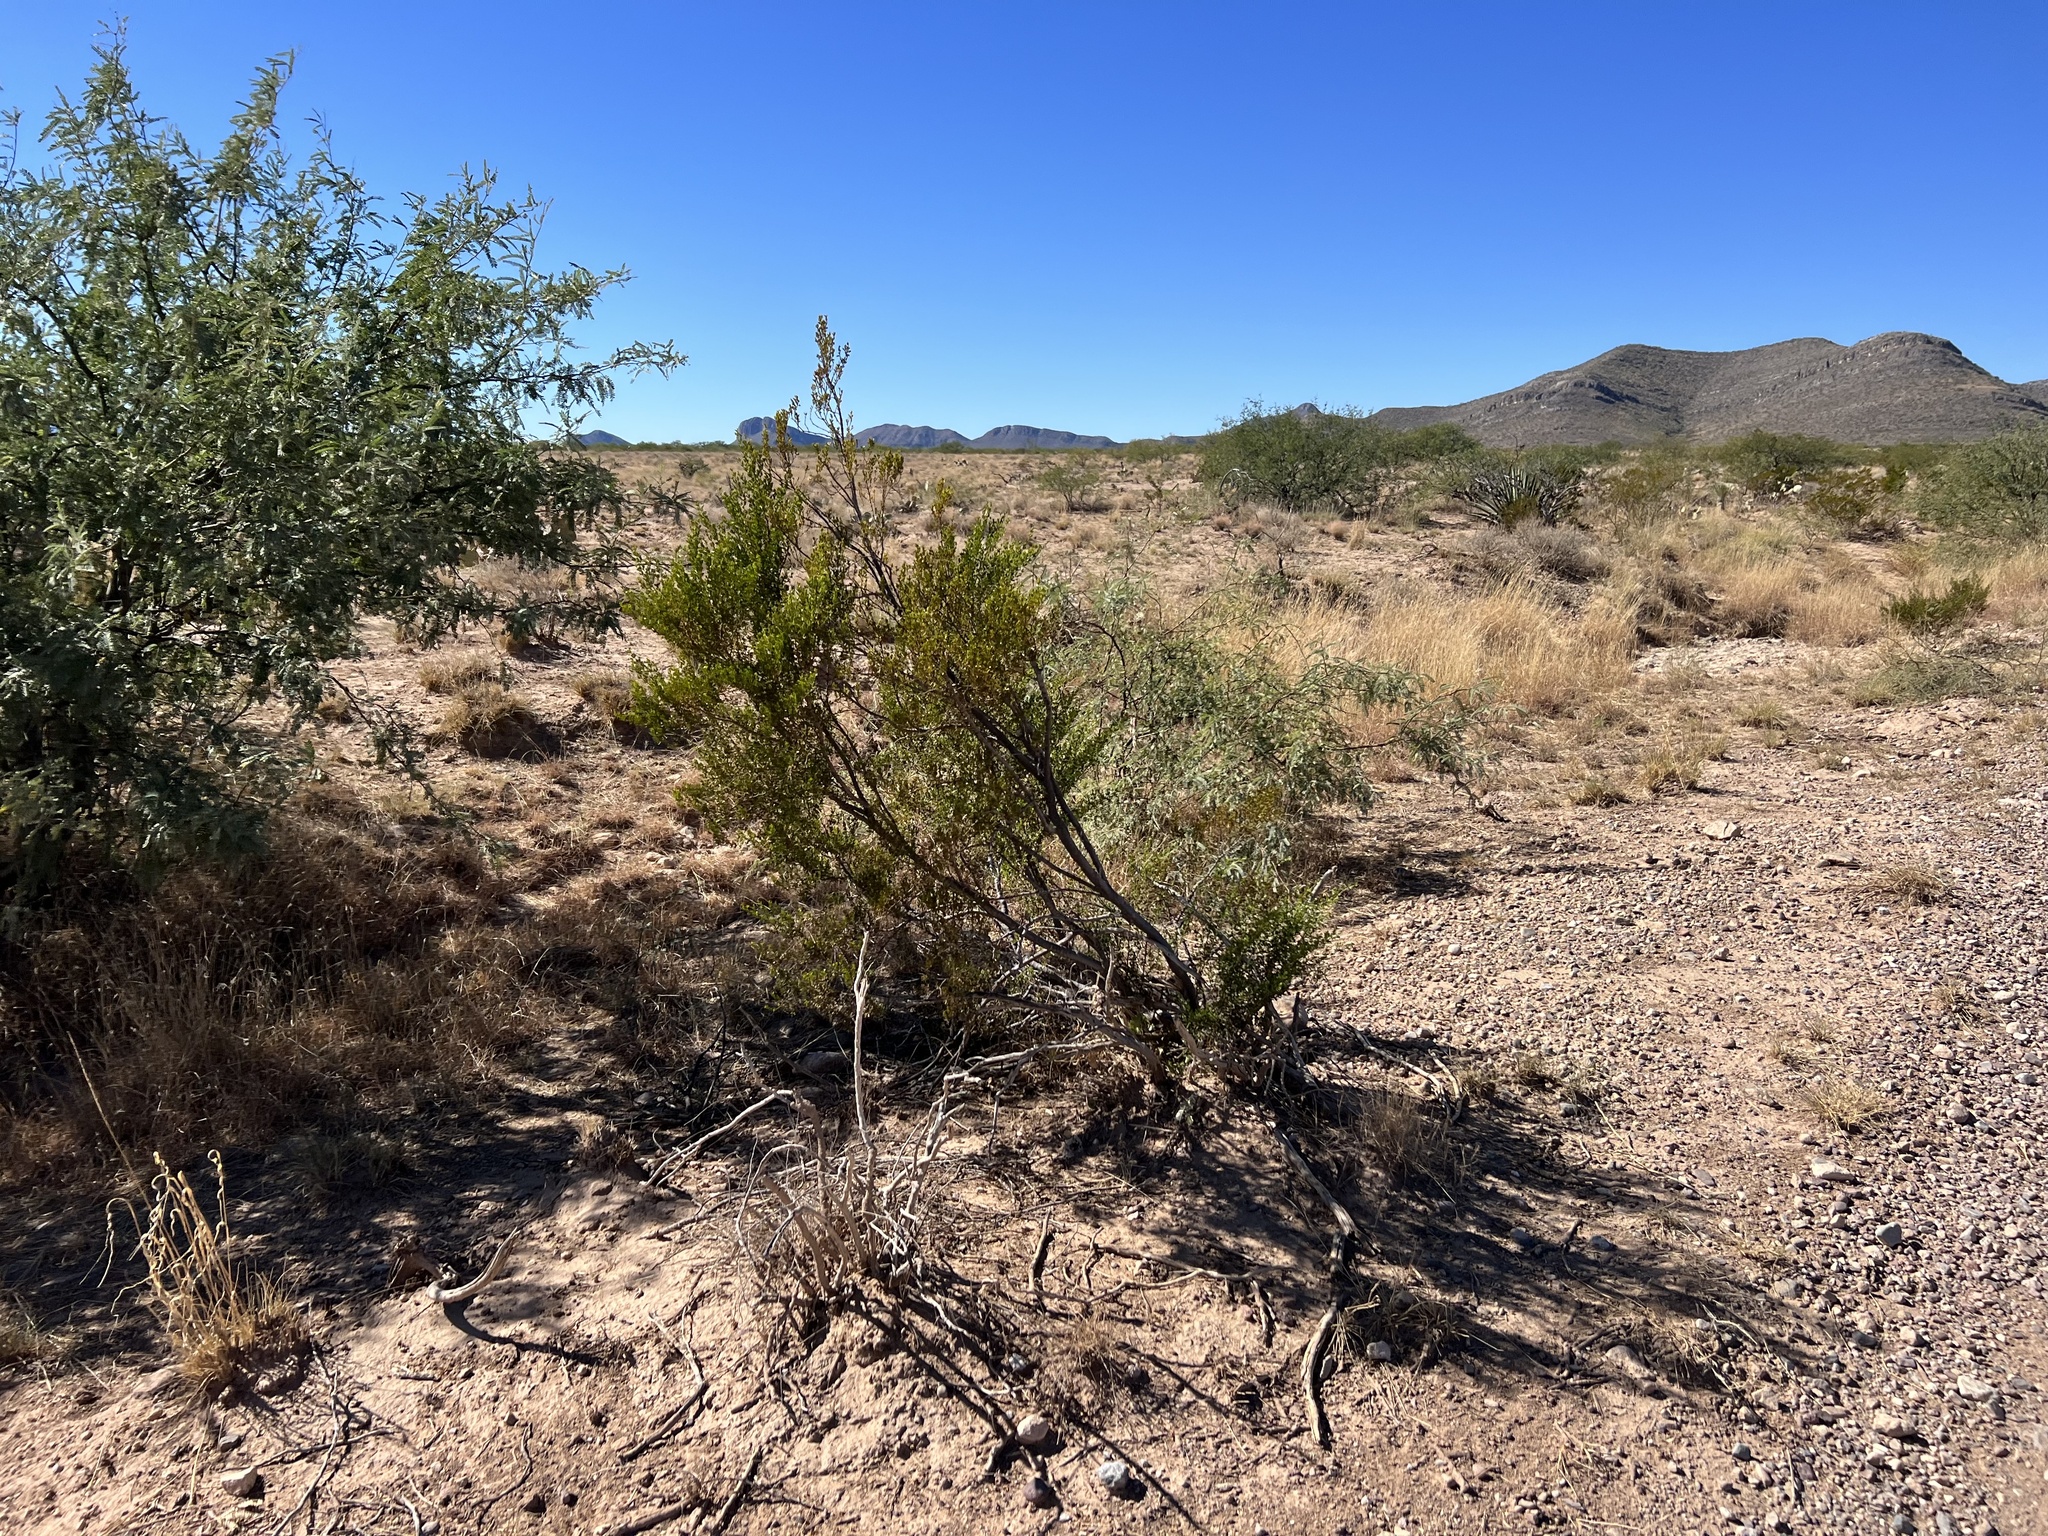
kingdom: Plantae
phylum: Tracheophyta
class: Magnoliopsida
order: Zygophyllales
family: Zygophyllaceae
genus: Larrea
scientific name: Larrea tridentata
